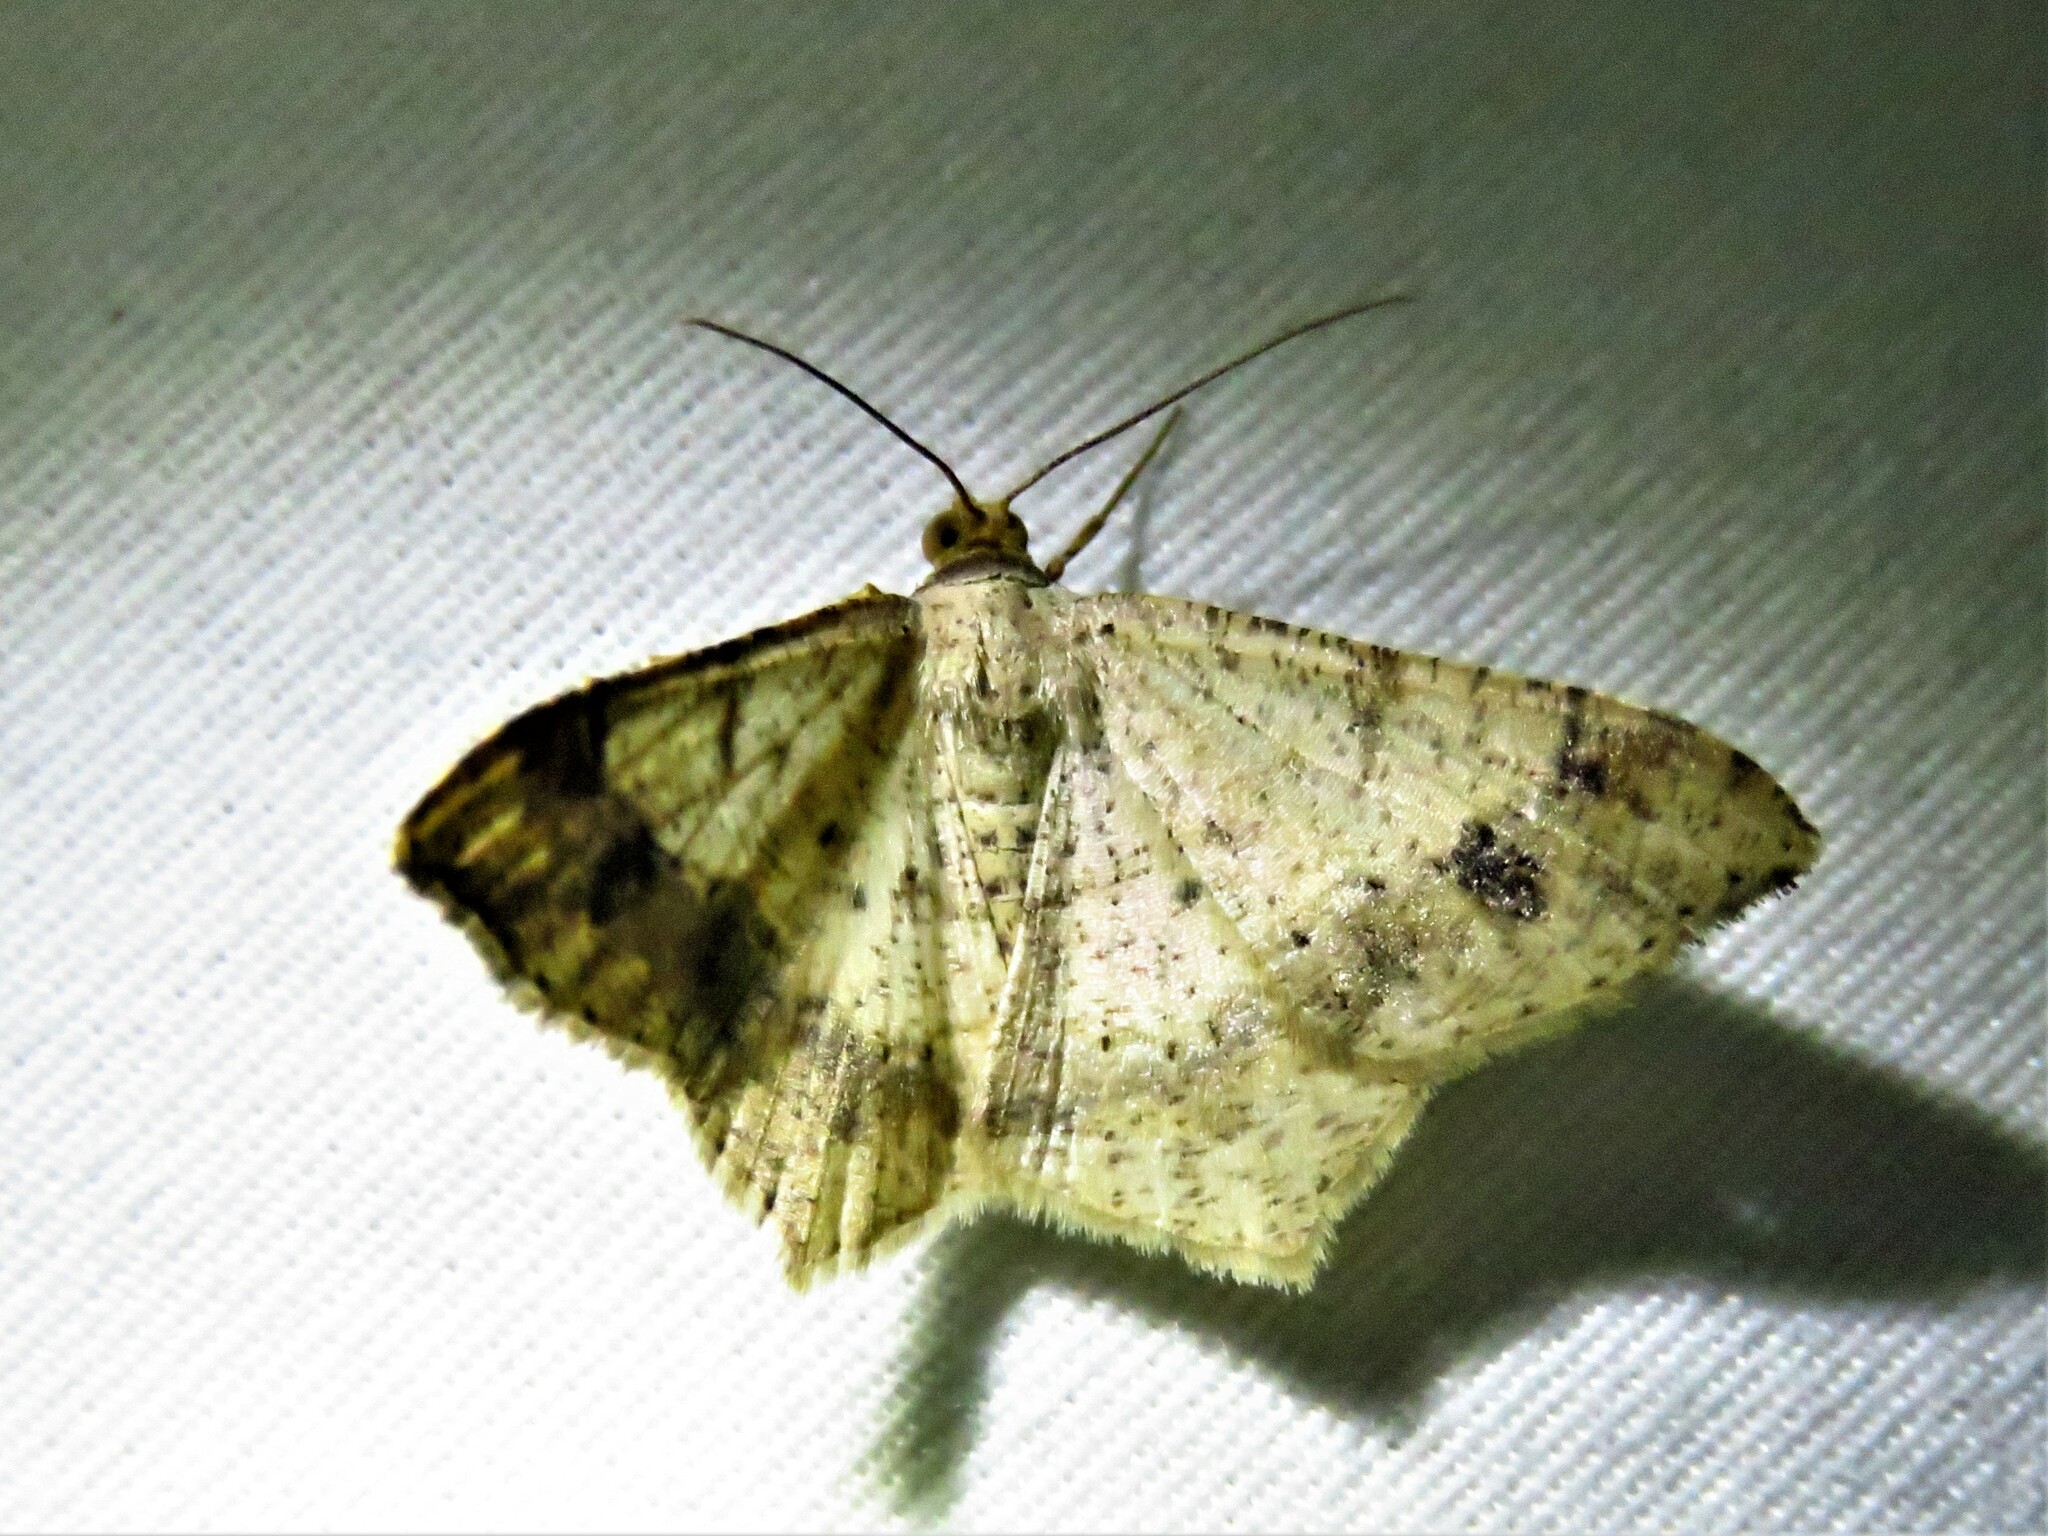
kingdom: Animalia
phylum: Arthropoda
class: Insecta
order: Lepidoptera
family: Geometridae
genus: Macaria
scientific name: Macaria abydata
